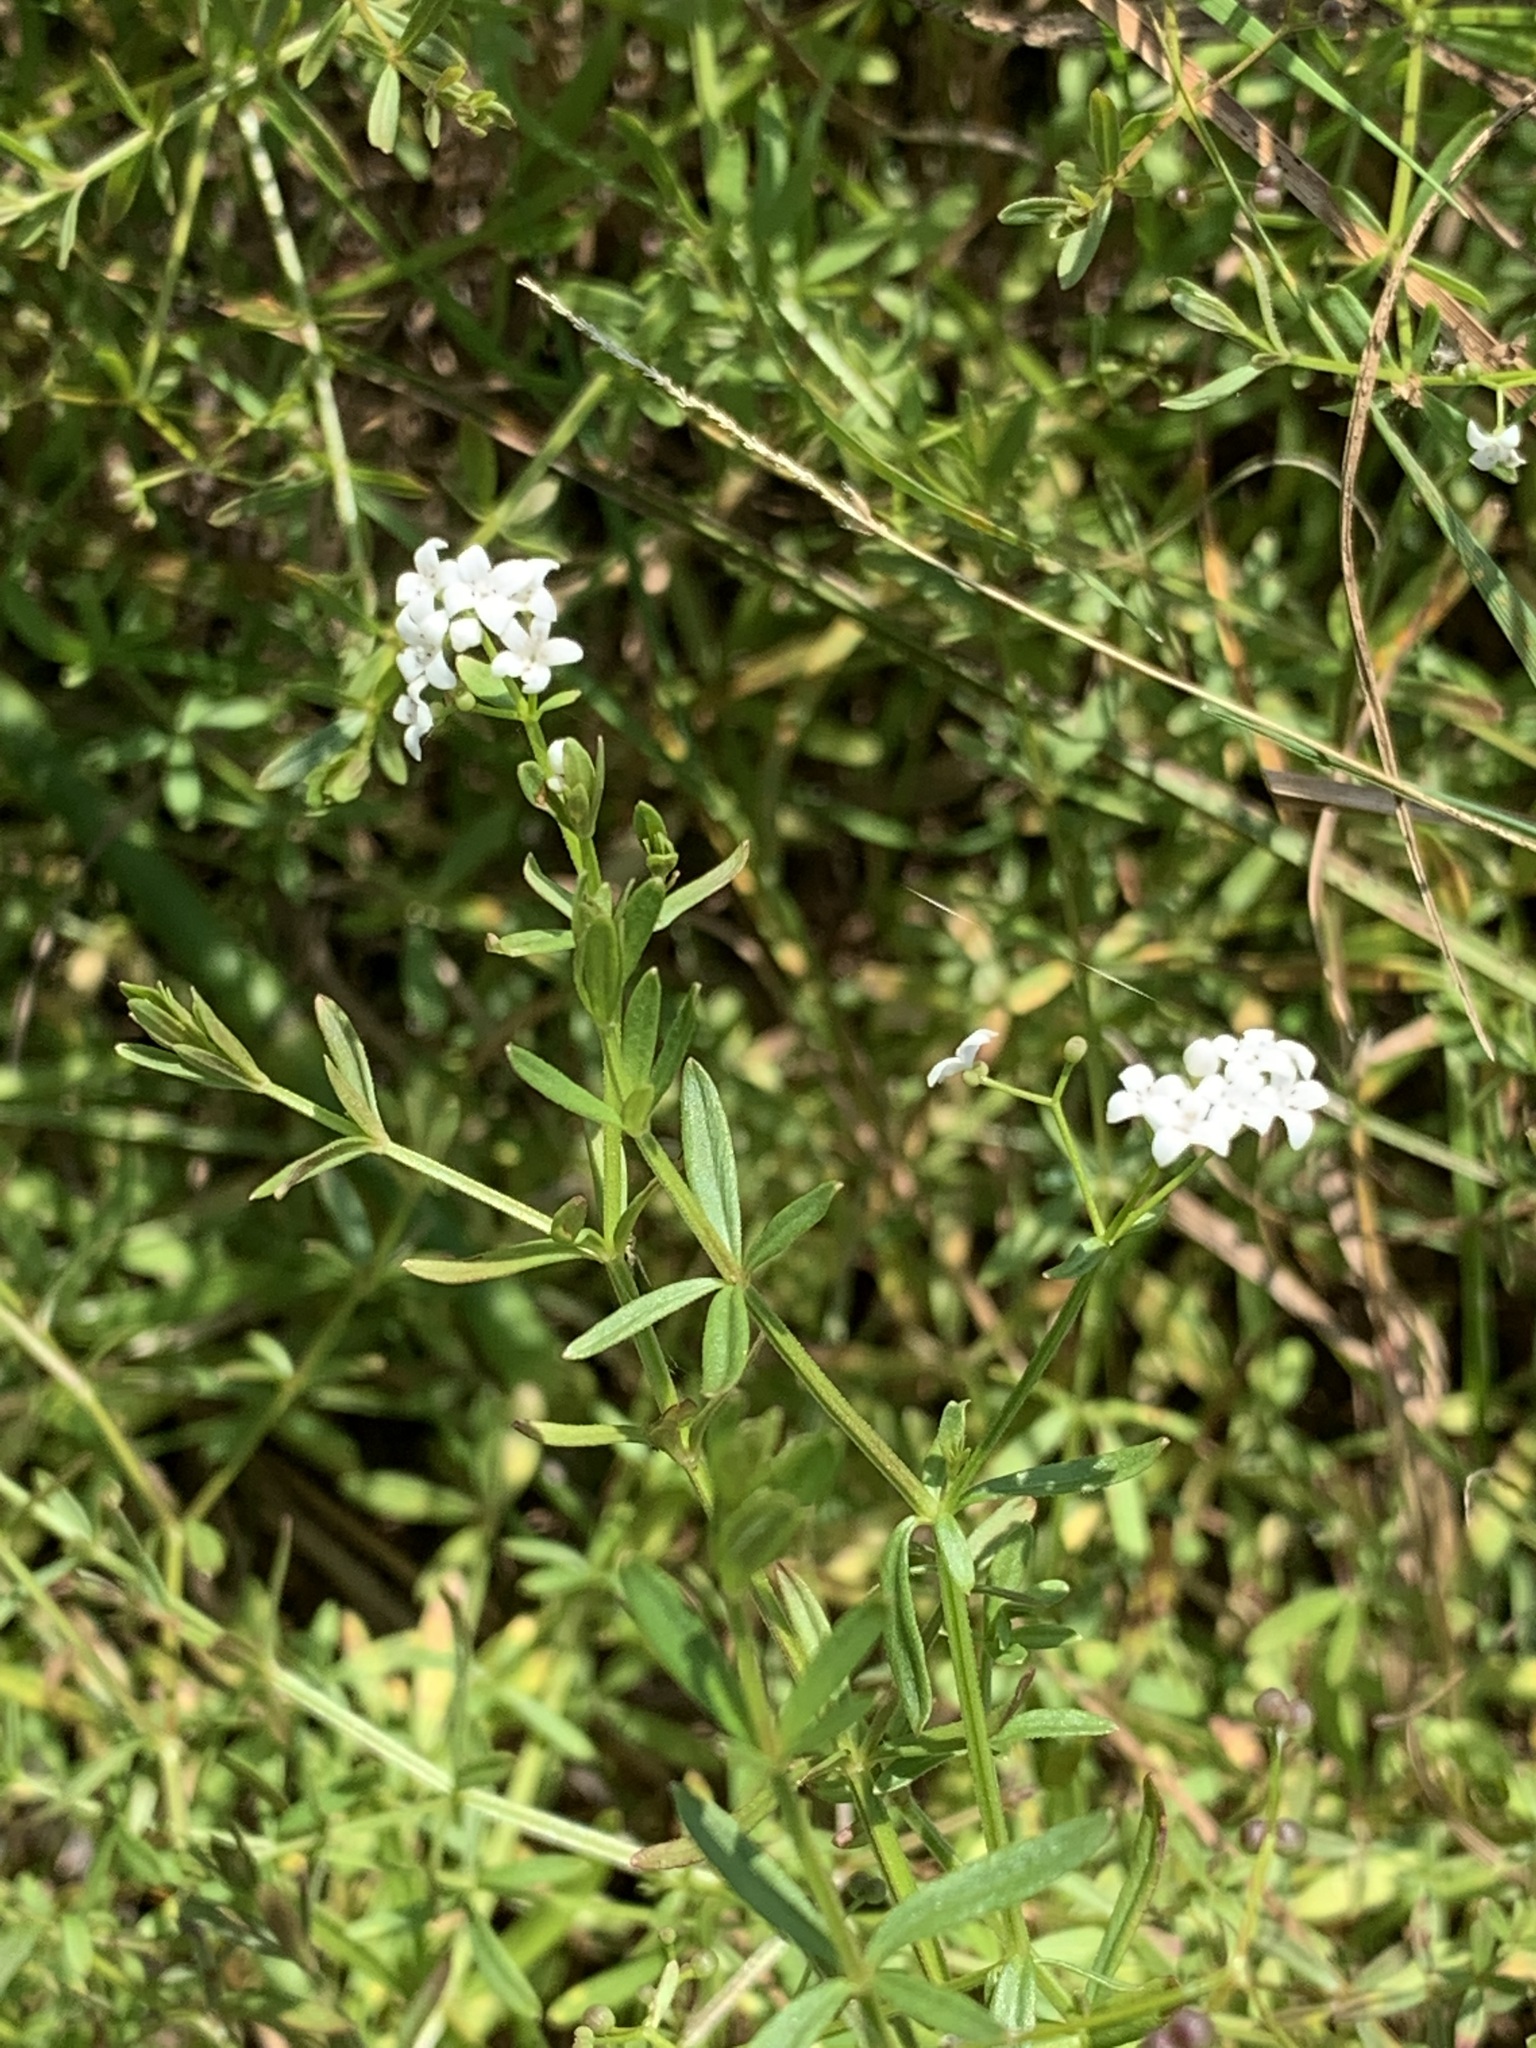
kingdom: Plantae
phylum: Tracheophyta
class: Magnoliopsida
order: Gentianales
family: Rubiaceae
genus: Galium
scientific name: Galium palustre
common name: Common marsh-bedstraw
